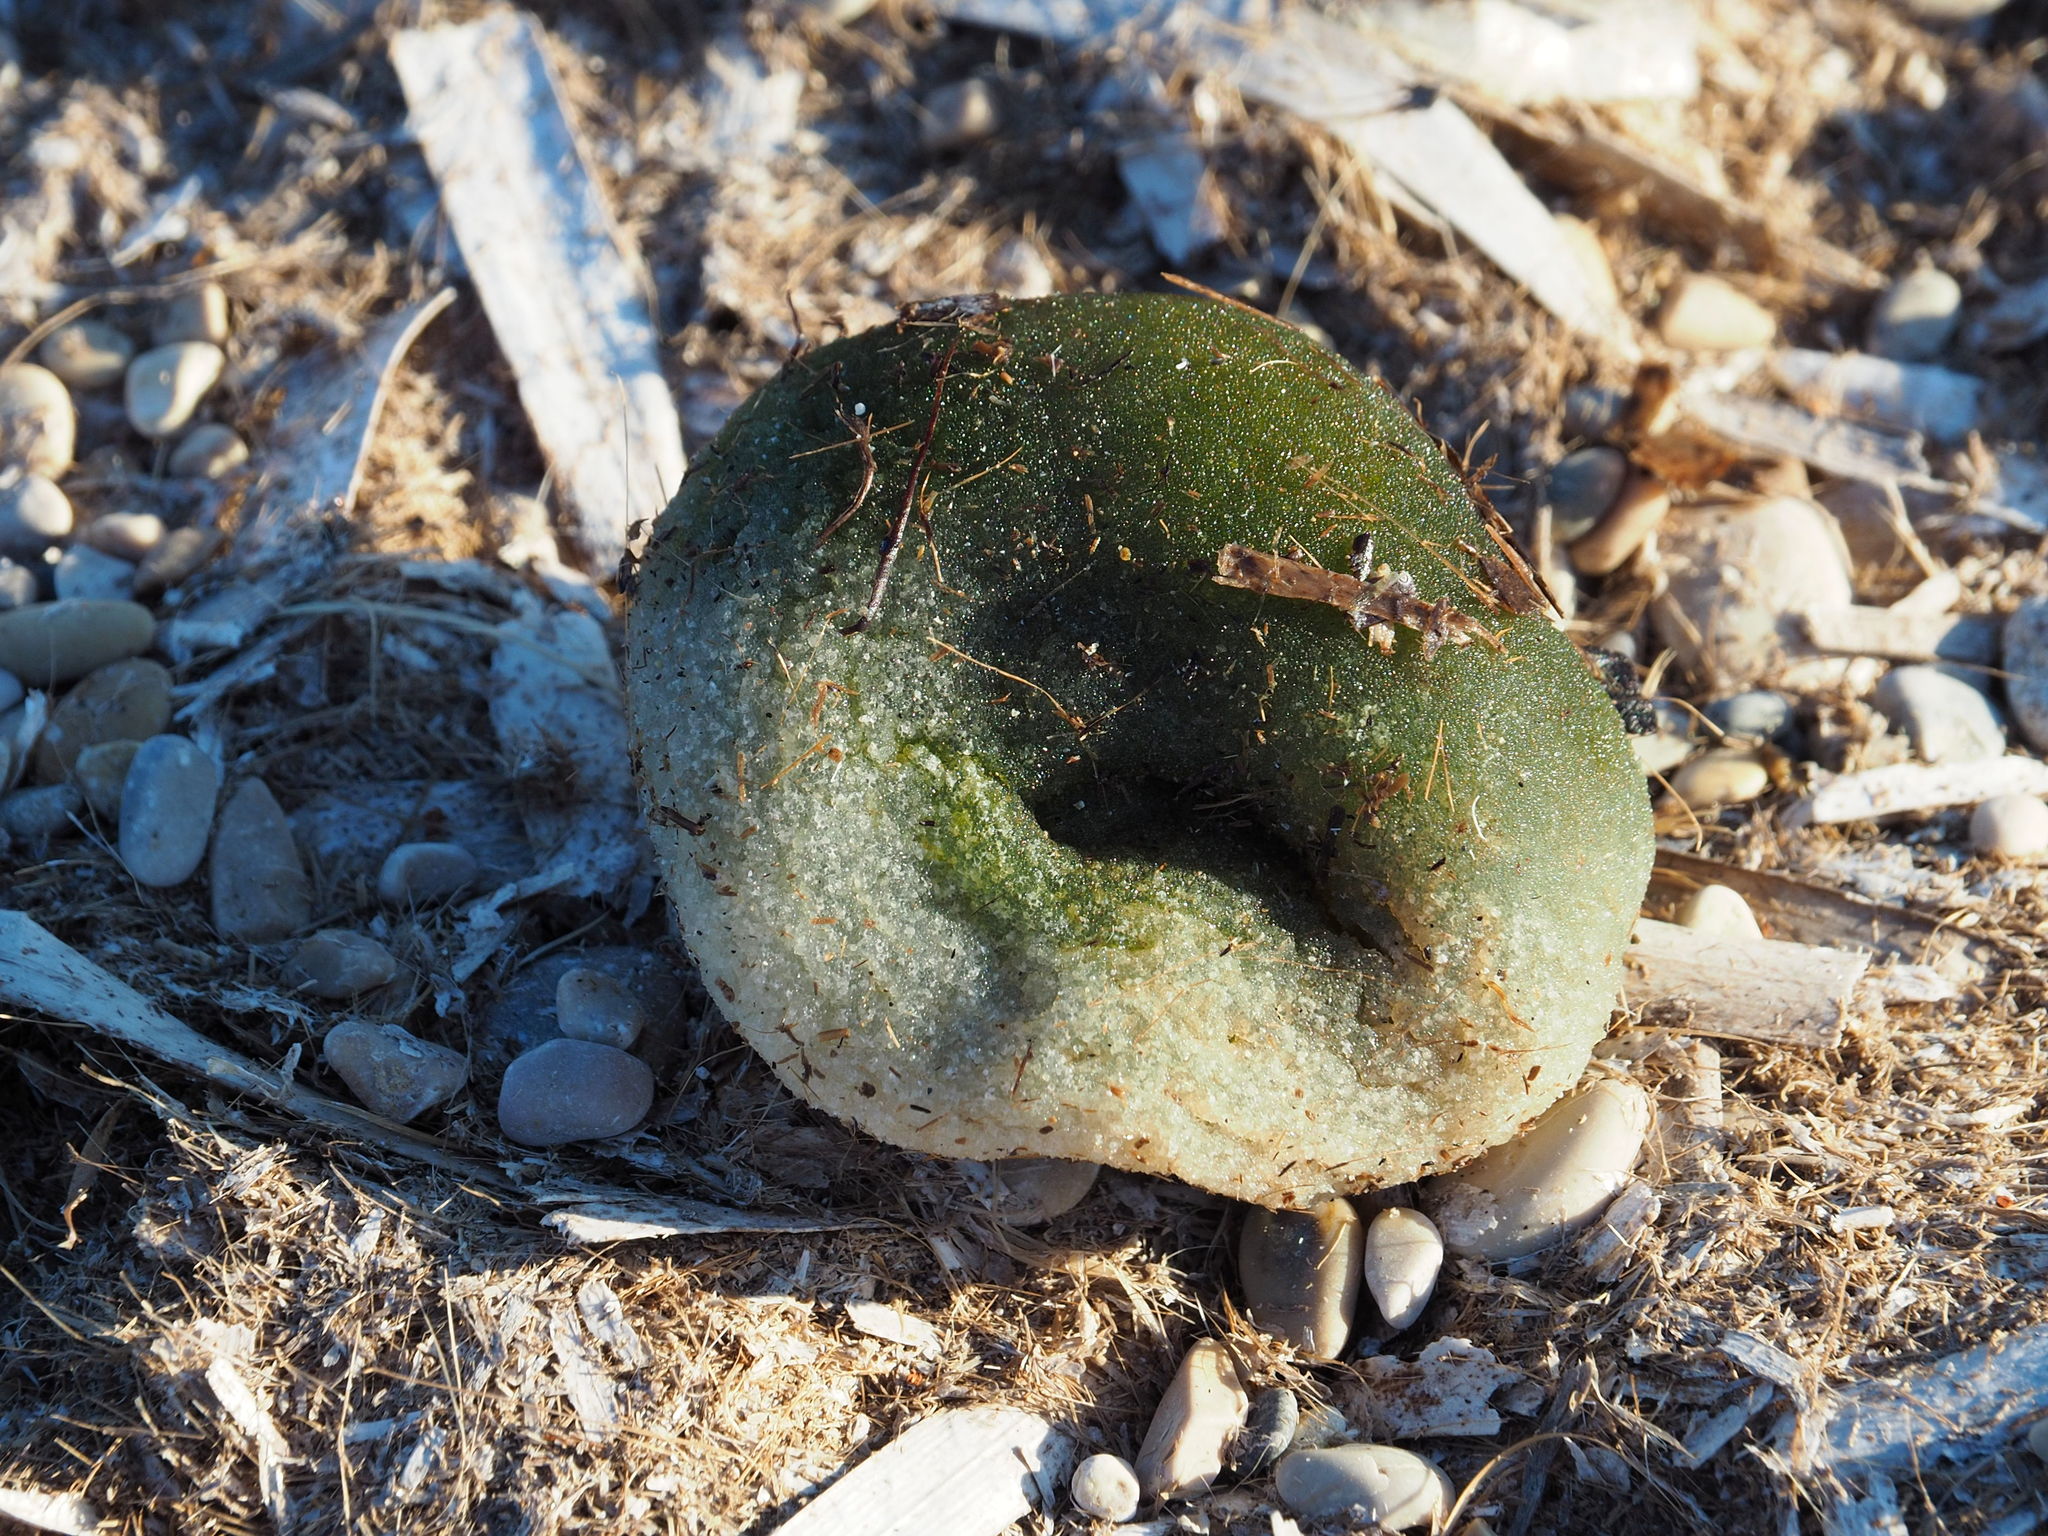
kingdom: Plantae
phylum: Chlorophyta
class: Ulvophyceae
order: Bryopsidales
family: Codiaceae
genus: Codium
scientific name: Codium bursa
